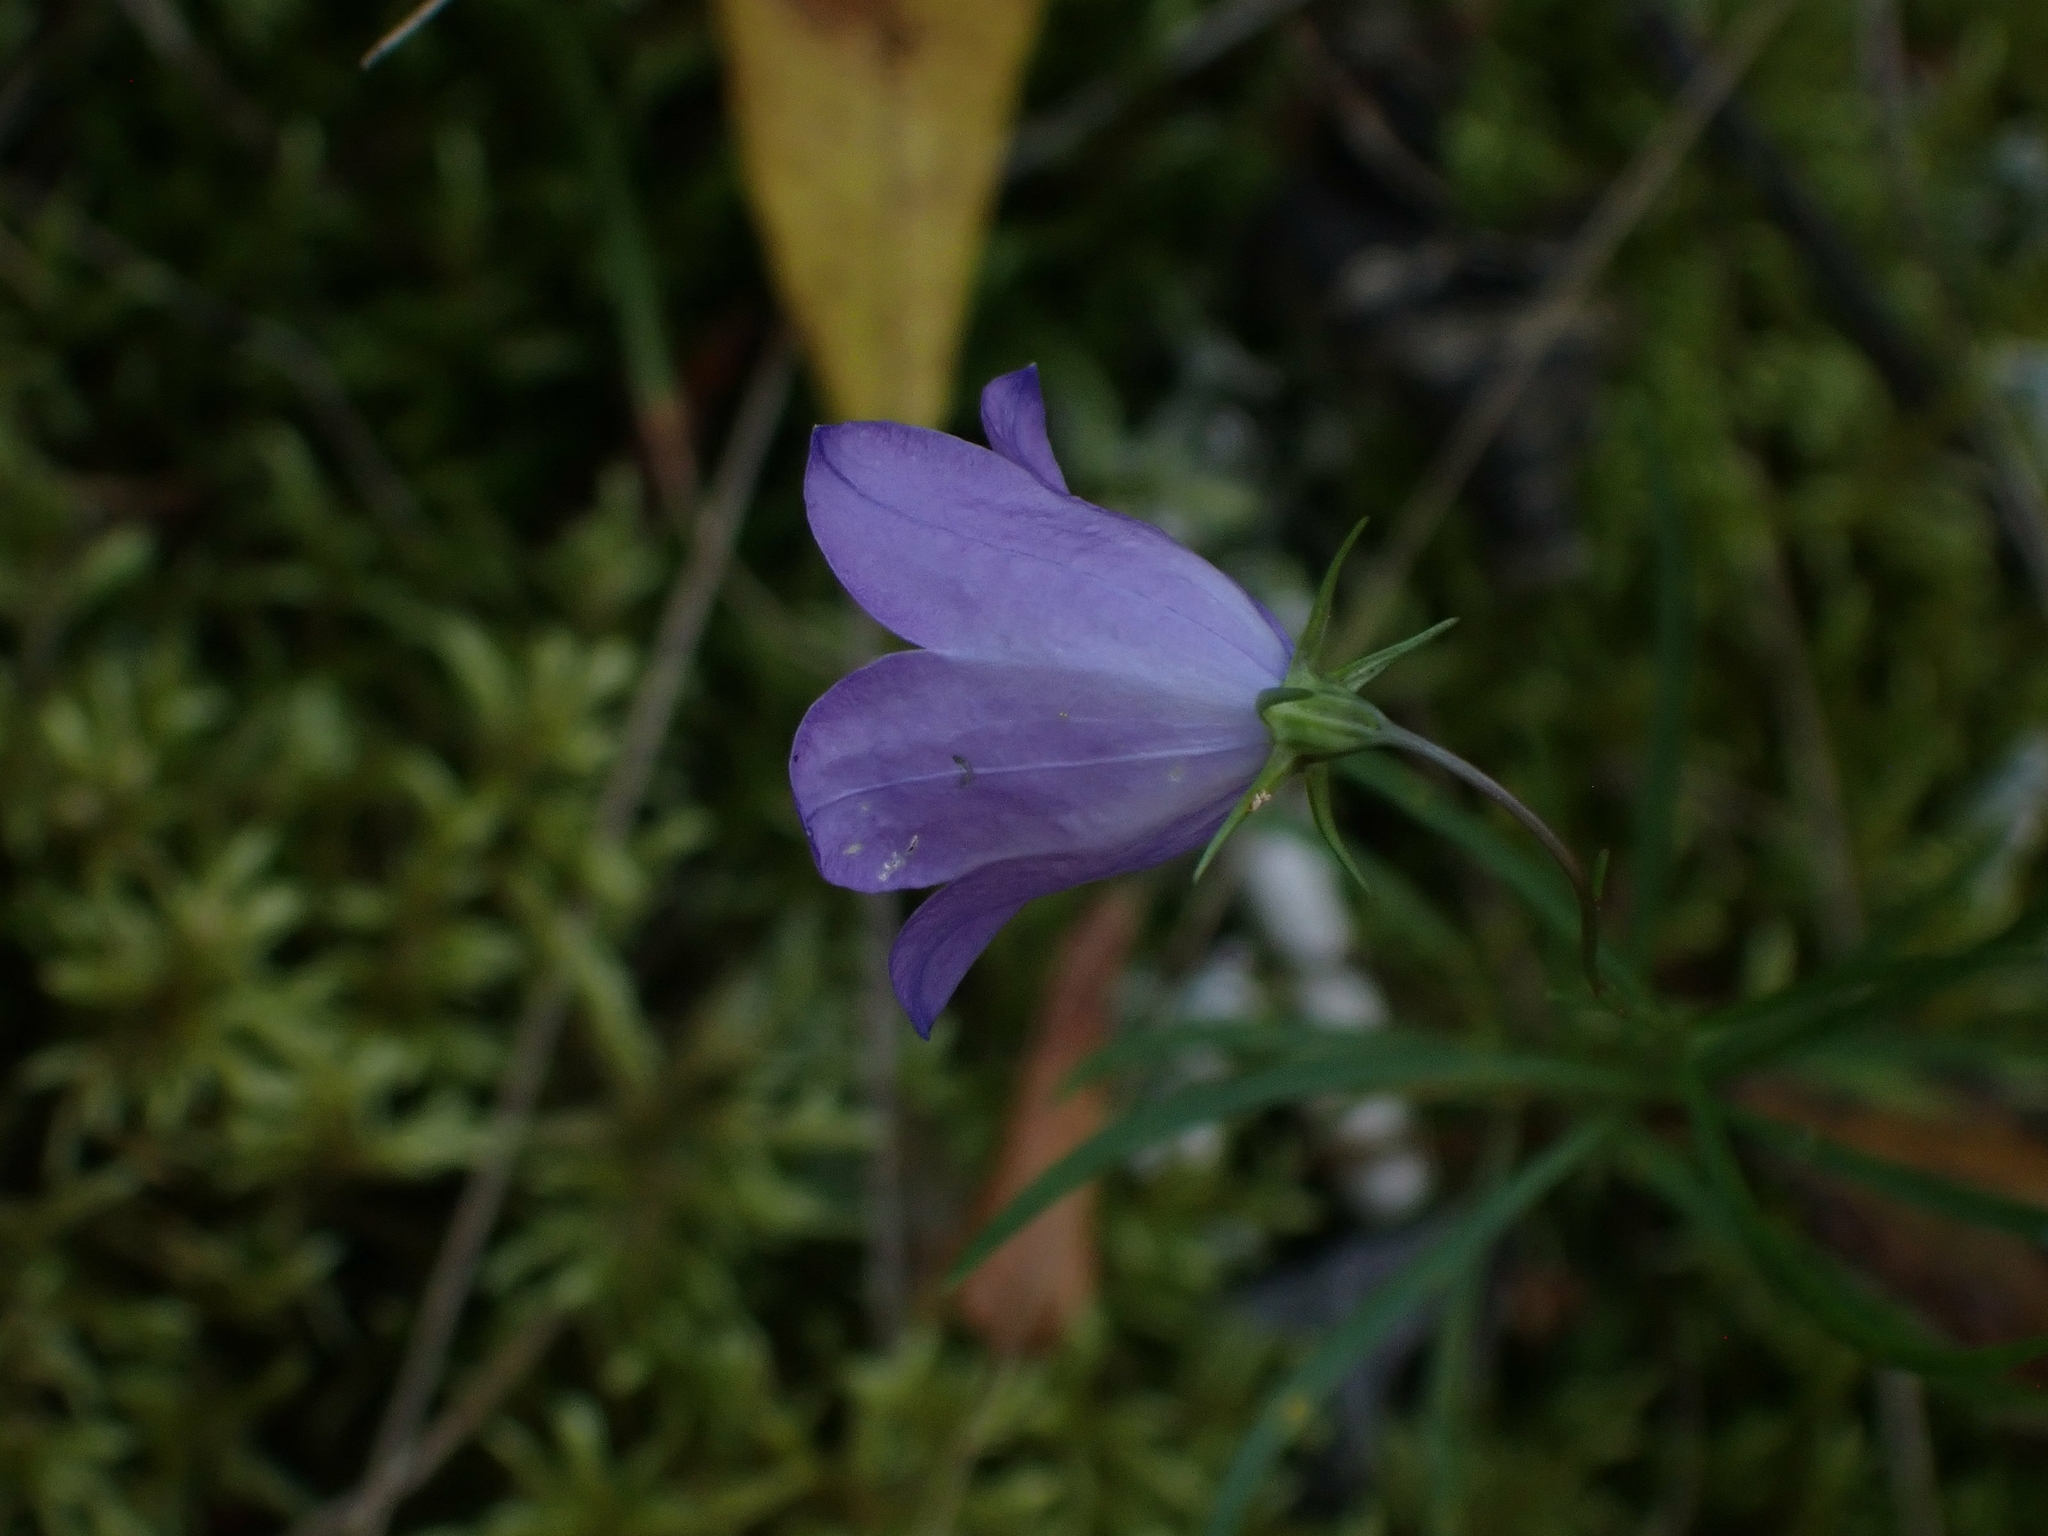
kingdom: Plantae
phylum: Tracheophyta
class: Magnoliopsida
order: Asterales
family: Campanulaceae
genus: Campanula
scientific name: Campanula petiolata
